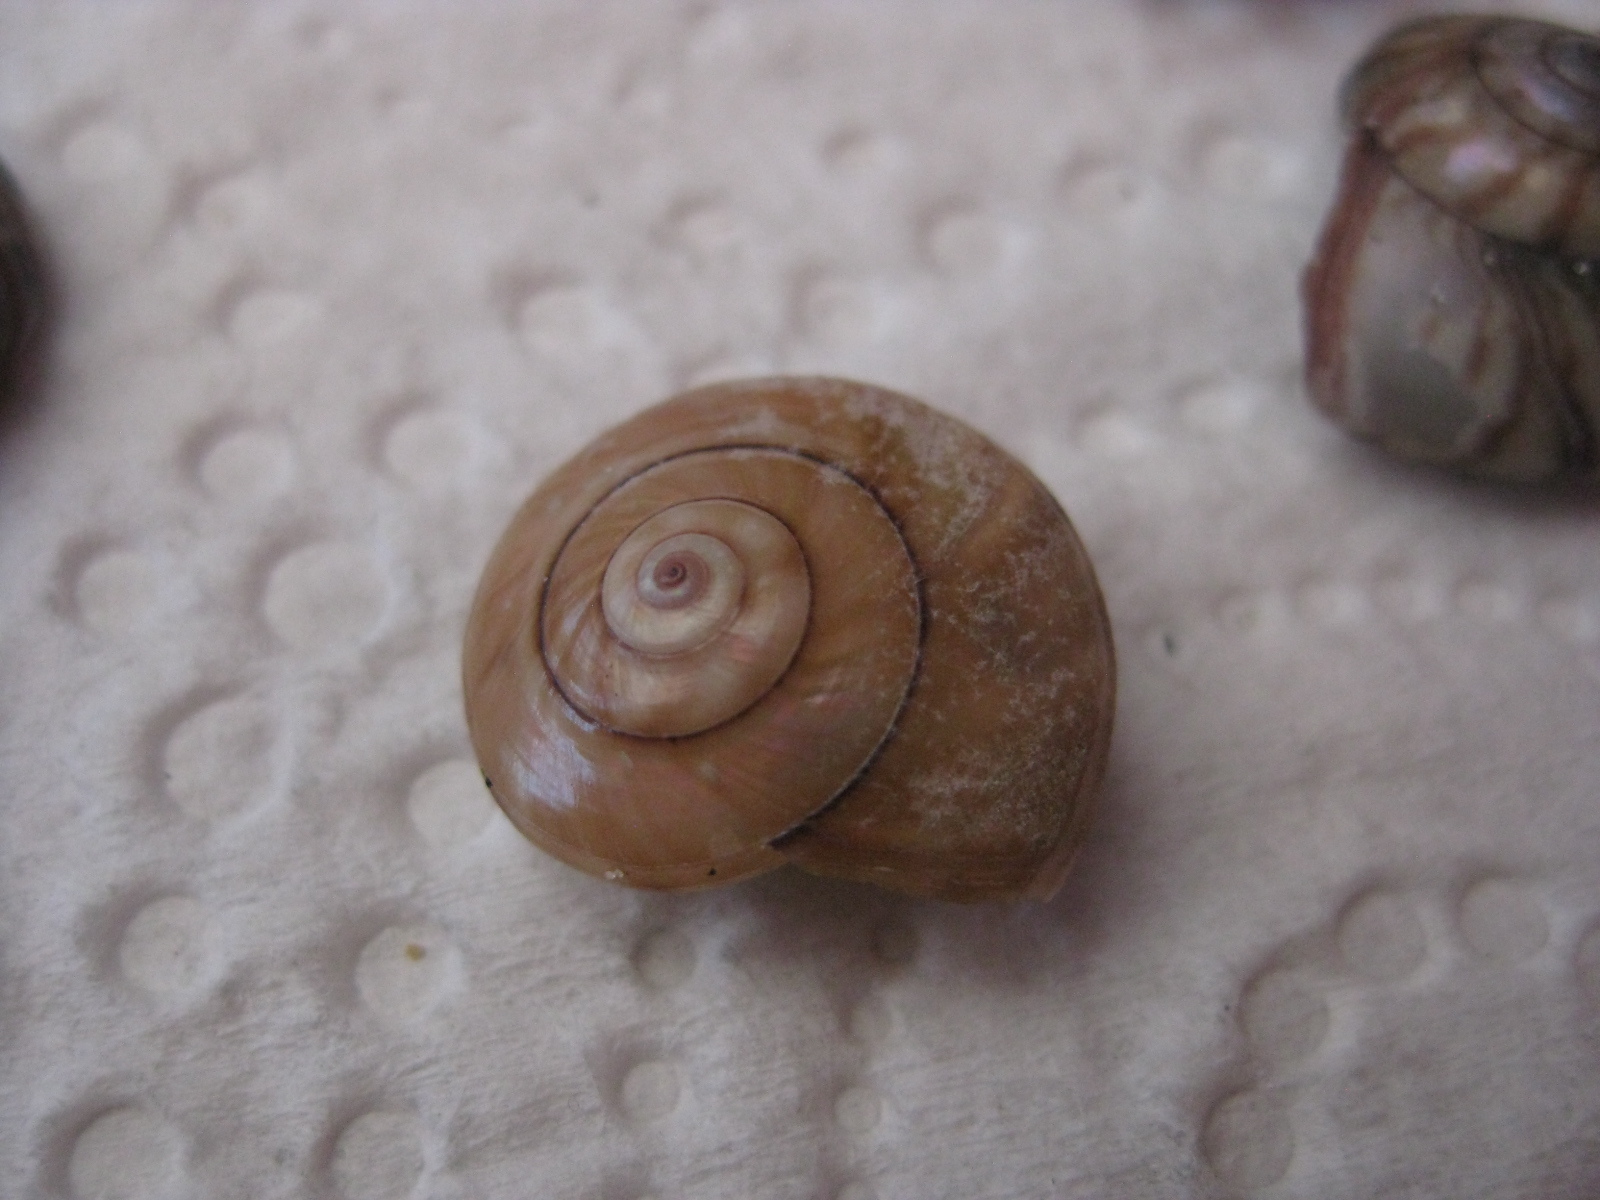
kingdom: Animalia
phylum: Mollusca
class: Gastropoda
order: Trochida
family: Trochidae
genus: Zethalia
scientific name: Zethalia zelandica
